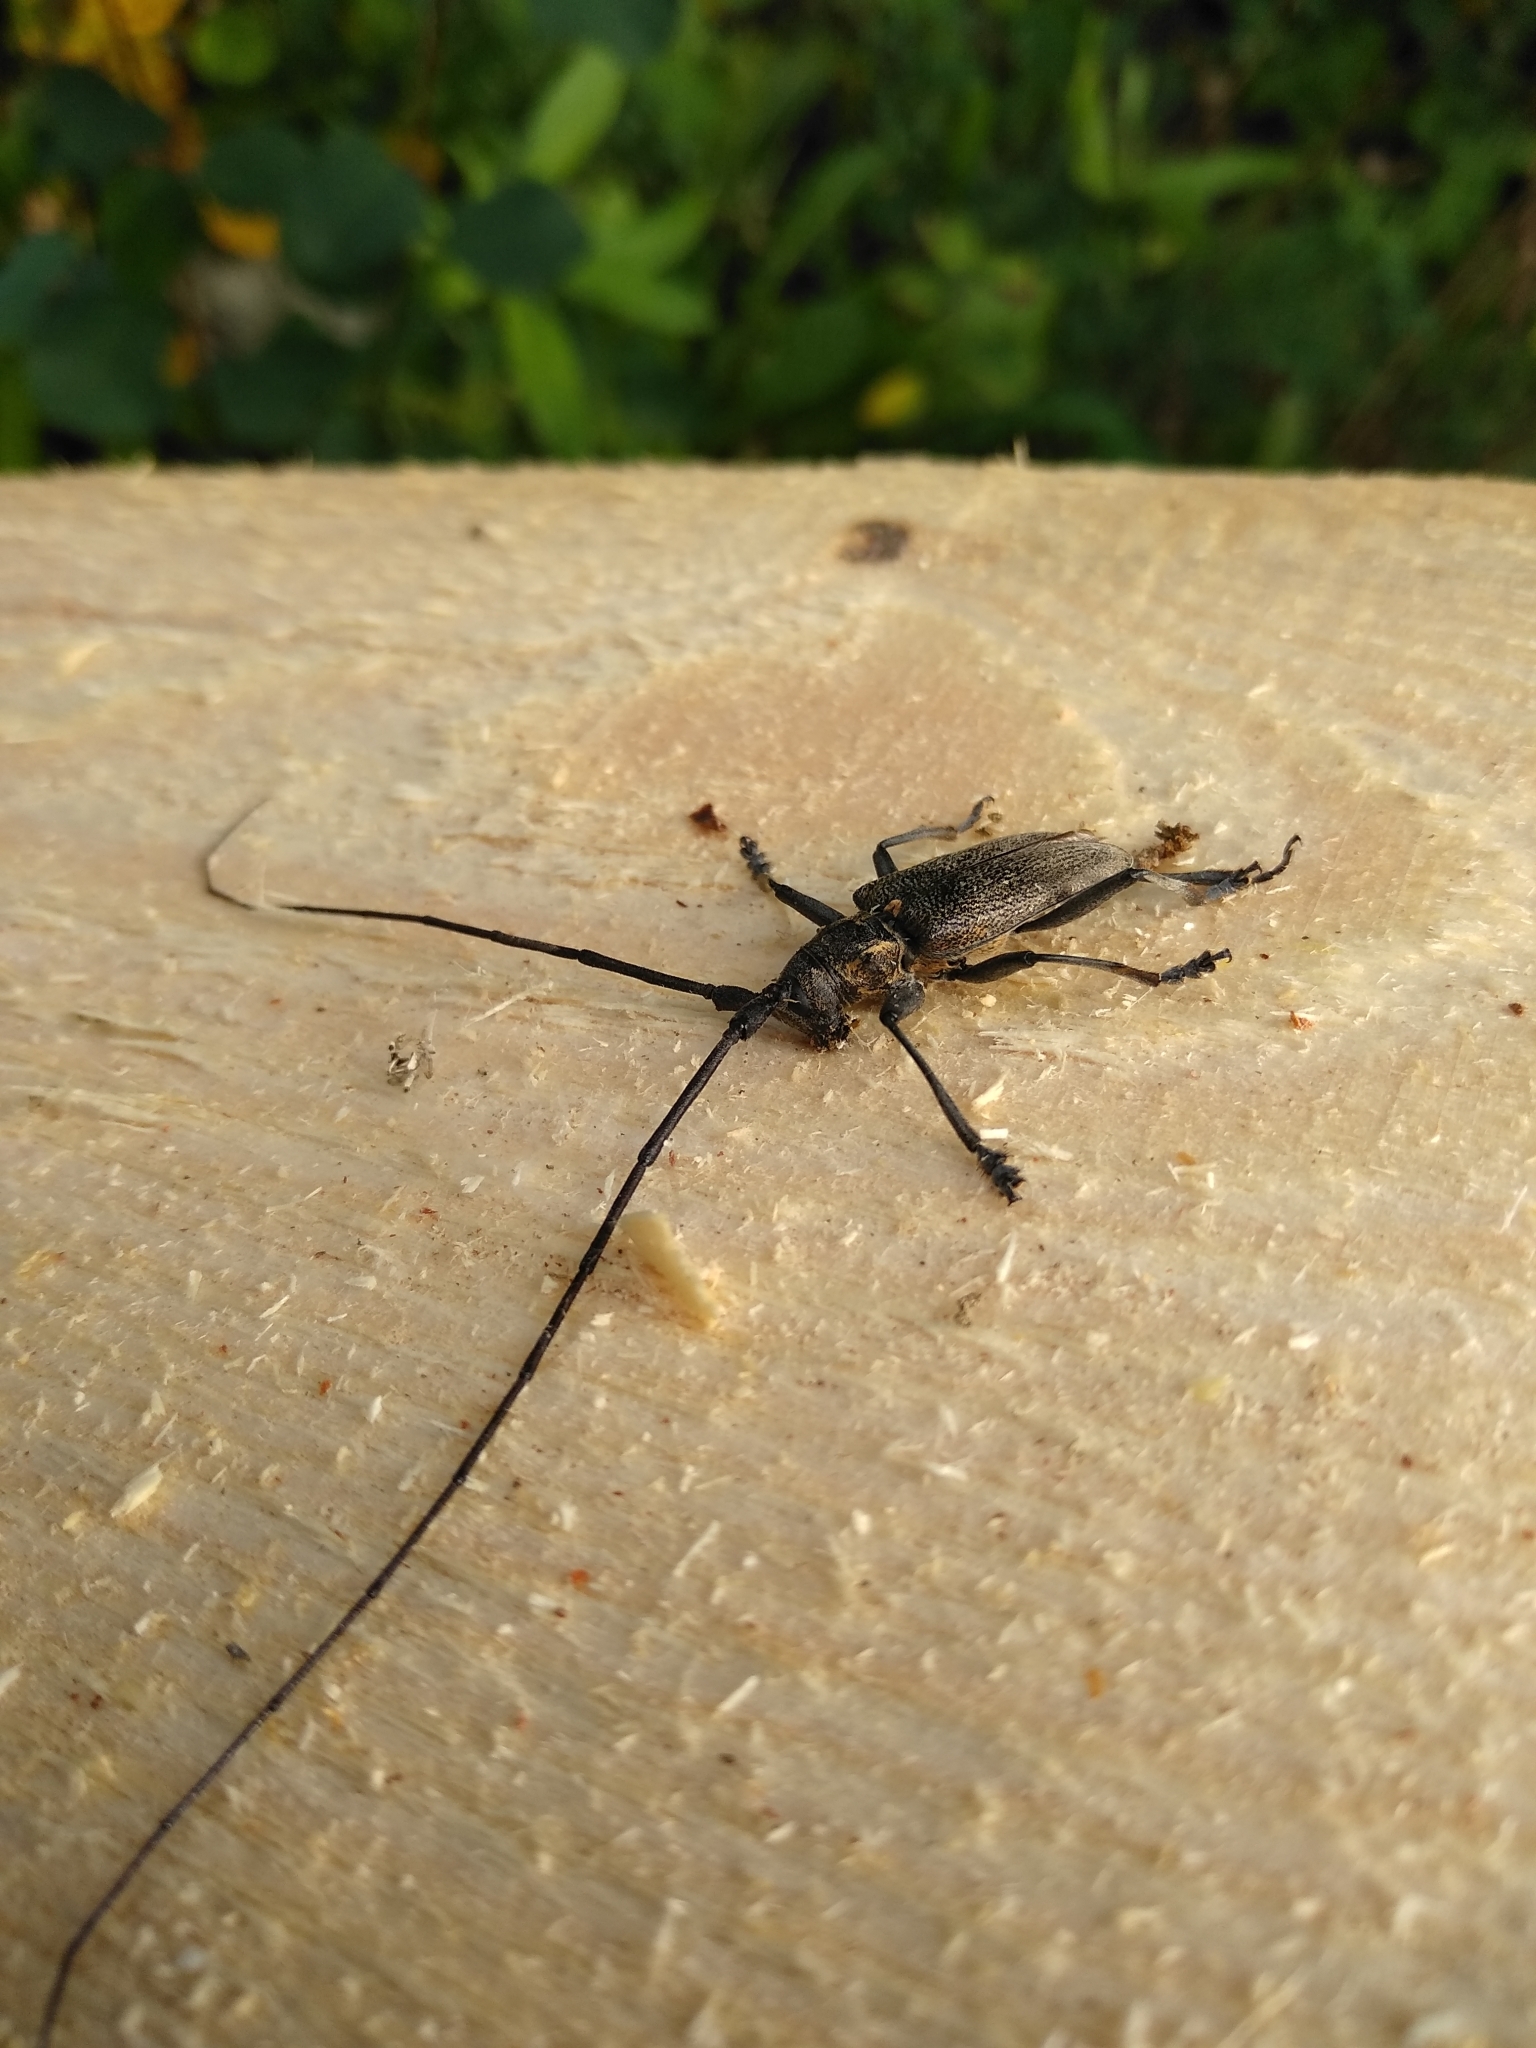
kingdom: Animalia
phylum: Arthropoda
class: Insecta
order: Coleoptera
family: Cerambycidae
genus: Monochamus
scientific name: Monochamus galloprovincialis
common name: Pine sawyer
